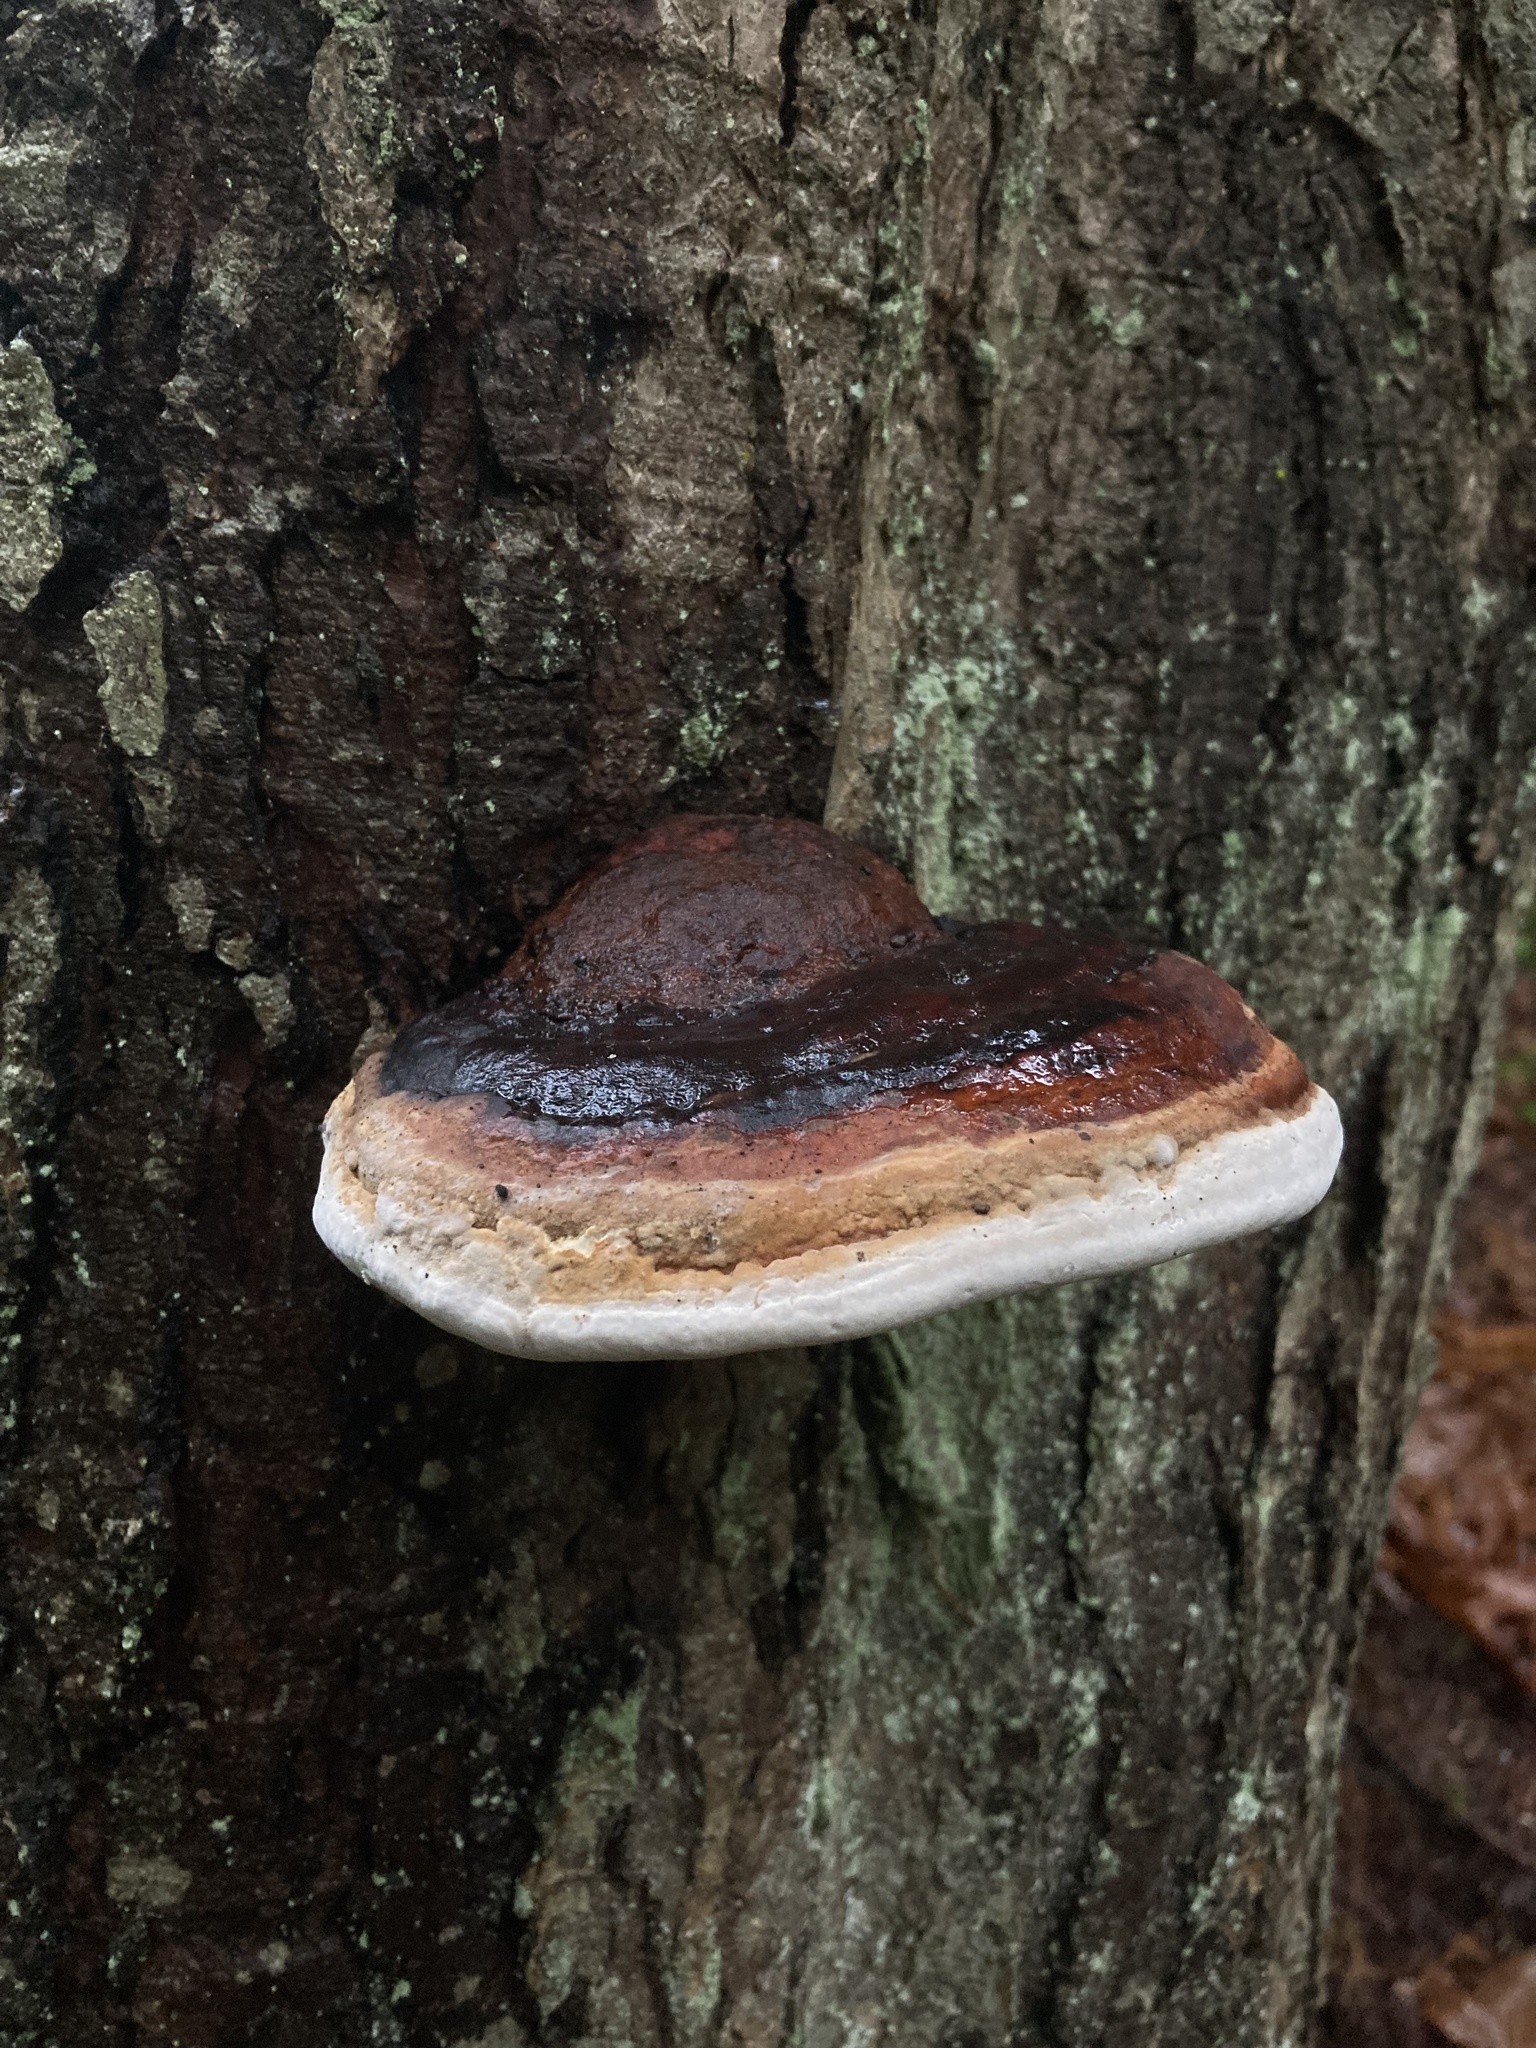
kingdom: Fungi
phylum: Basidiomycota
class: Agaricomycetes
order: Polyporales
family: Fomitopsidaceae
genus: Fomitopsis
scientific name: Fomitopsis mounceae
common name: Northern red belt
